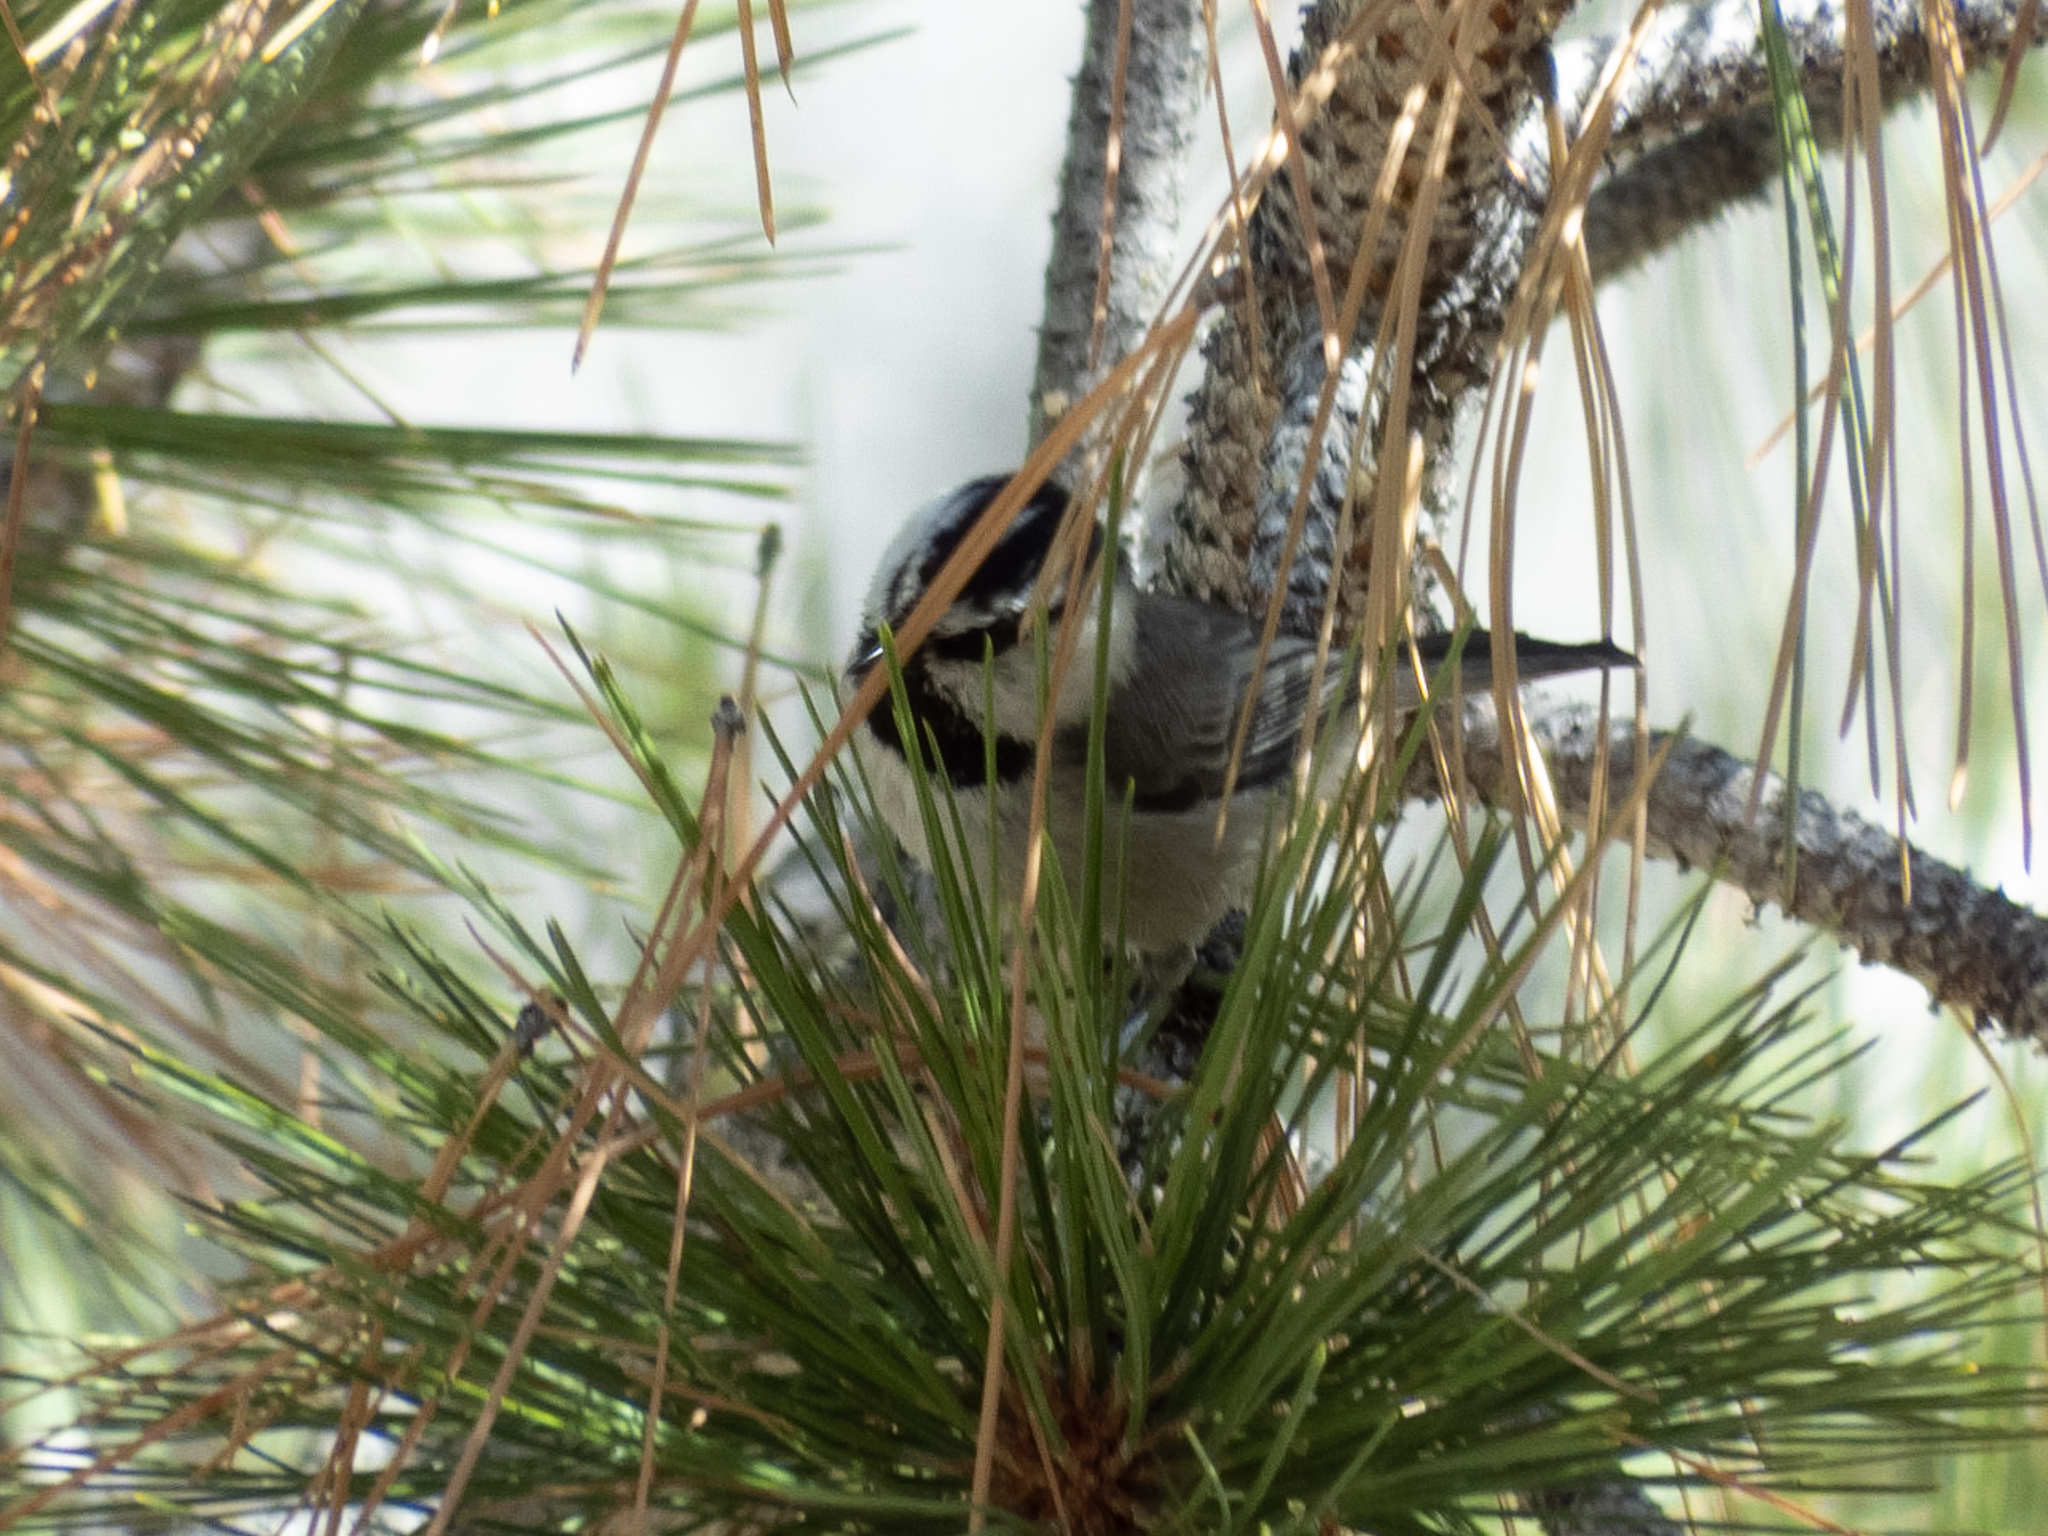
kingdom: Animalia
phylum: Chordata
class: Aves
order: Passeriformes
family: Paridae
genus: Poecile
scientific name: Poecile gambeli
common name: Mountain chickadee
